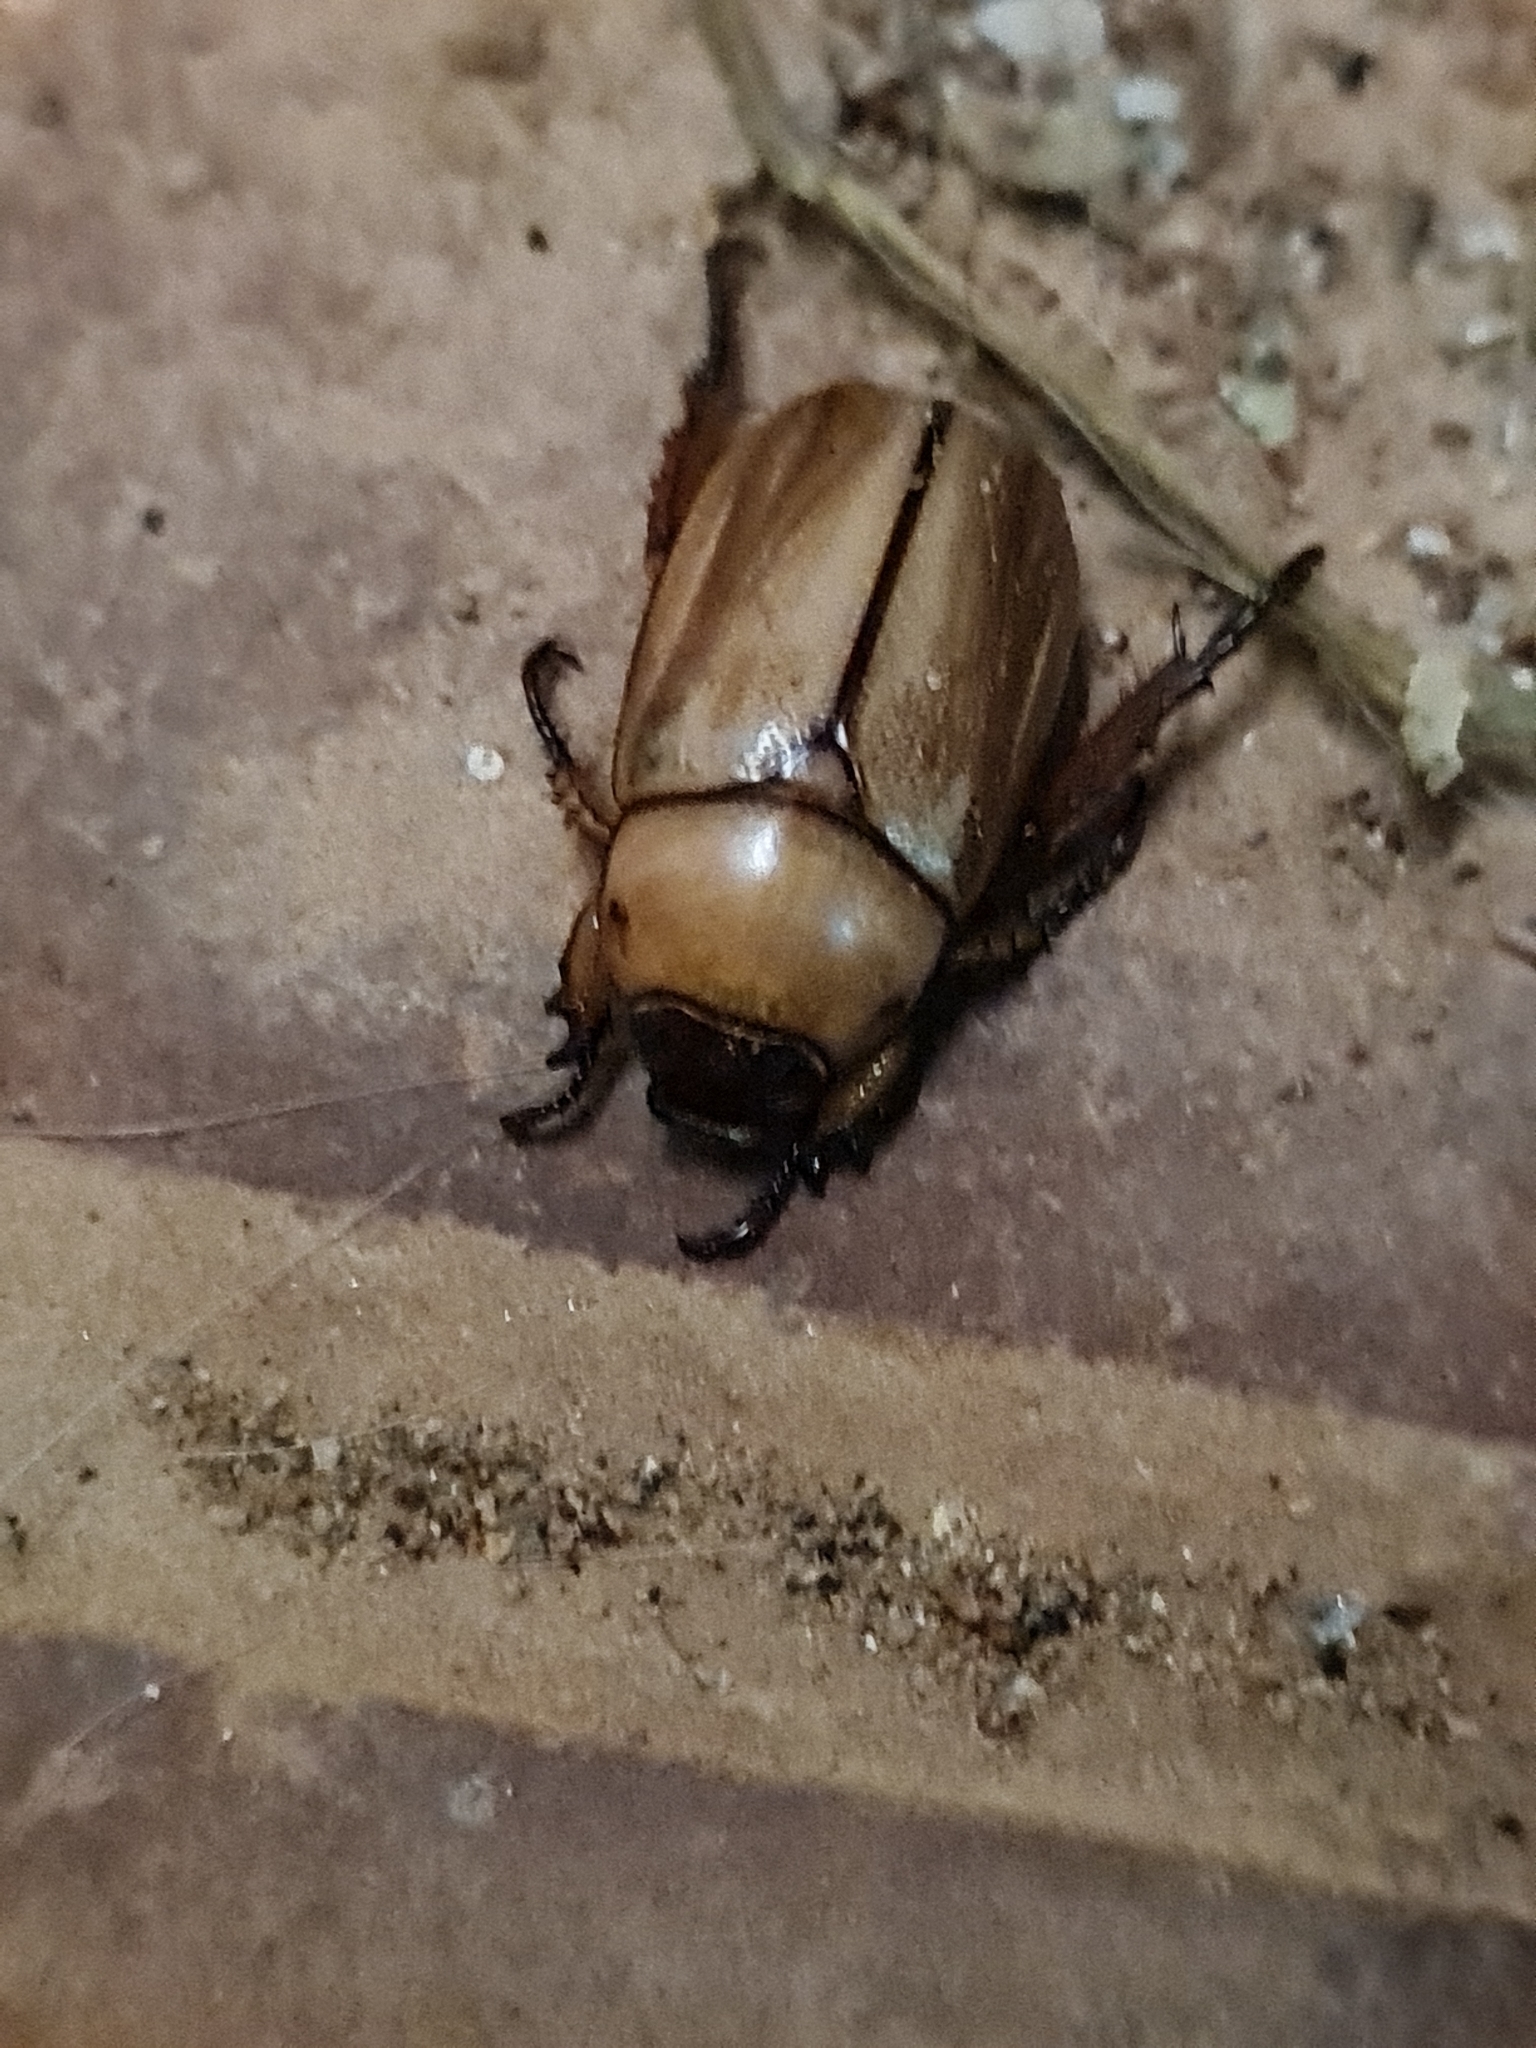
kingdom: Animalia
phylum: Arthropoda
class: Insecta
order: Coleoptera
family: Scarabaeidae
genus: Anomala
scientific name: Anomala varians
